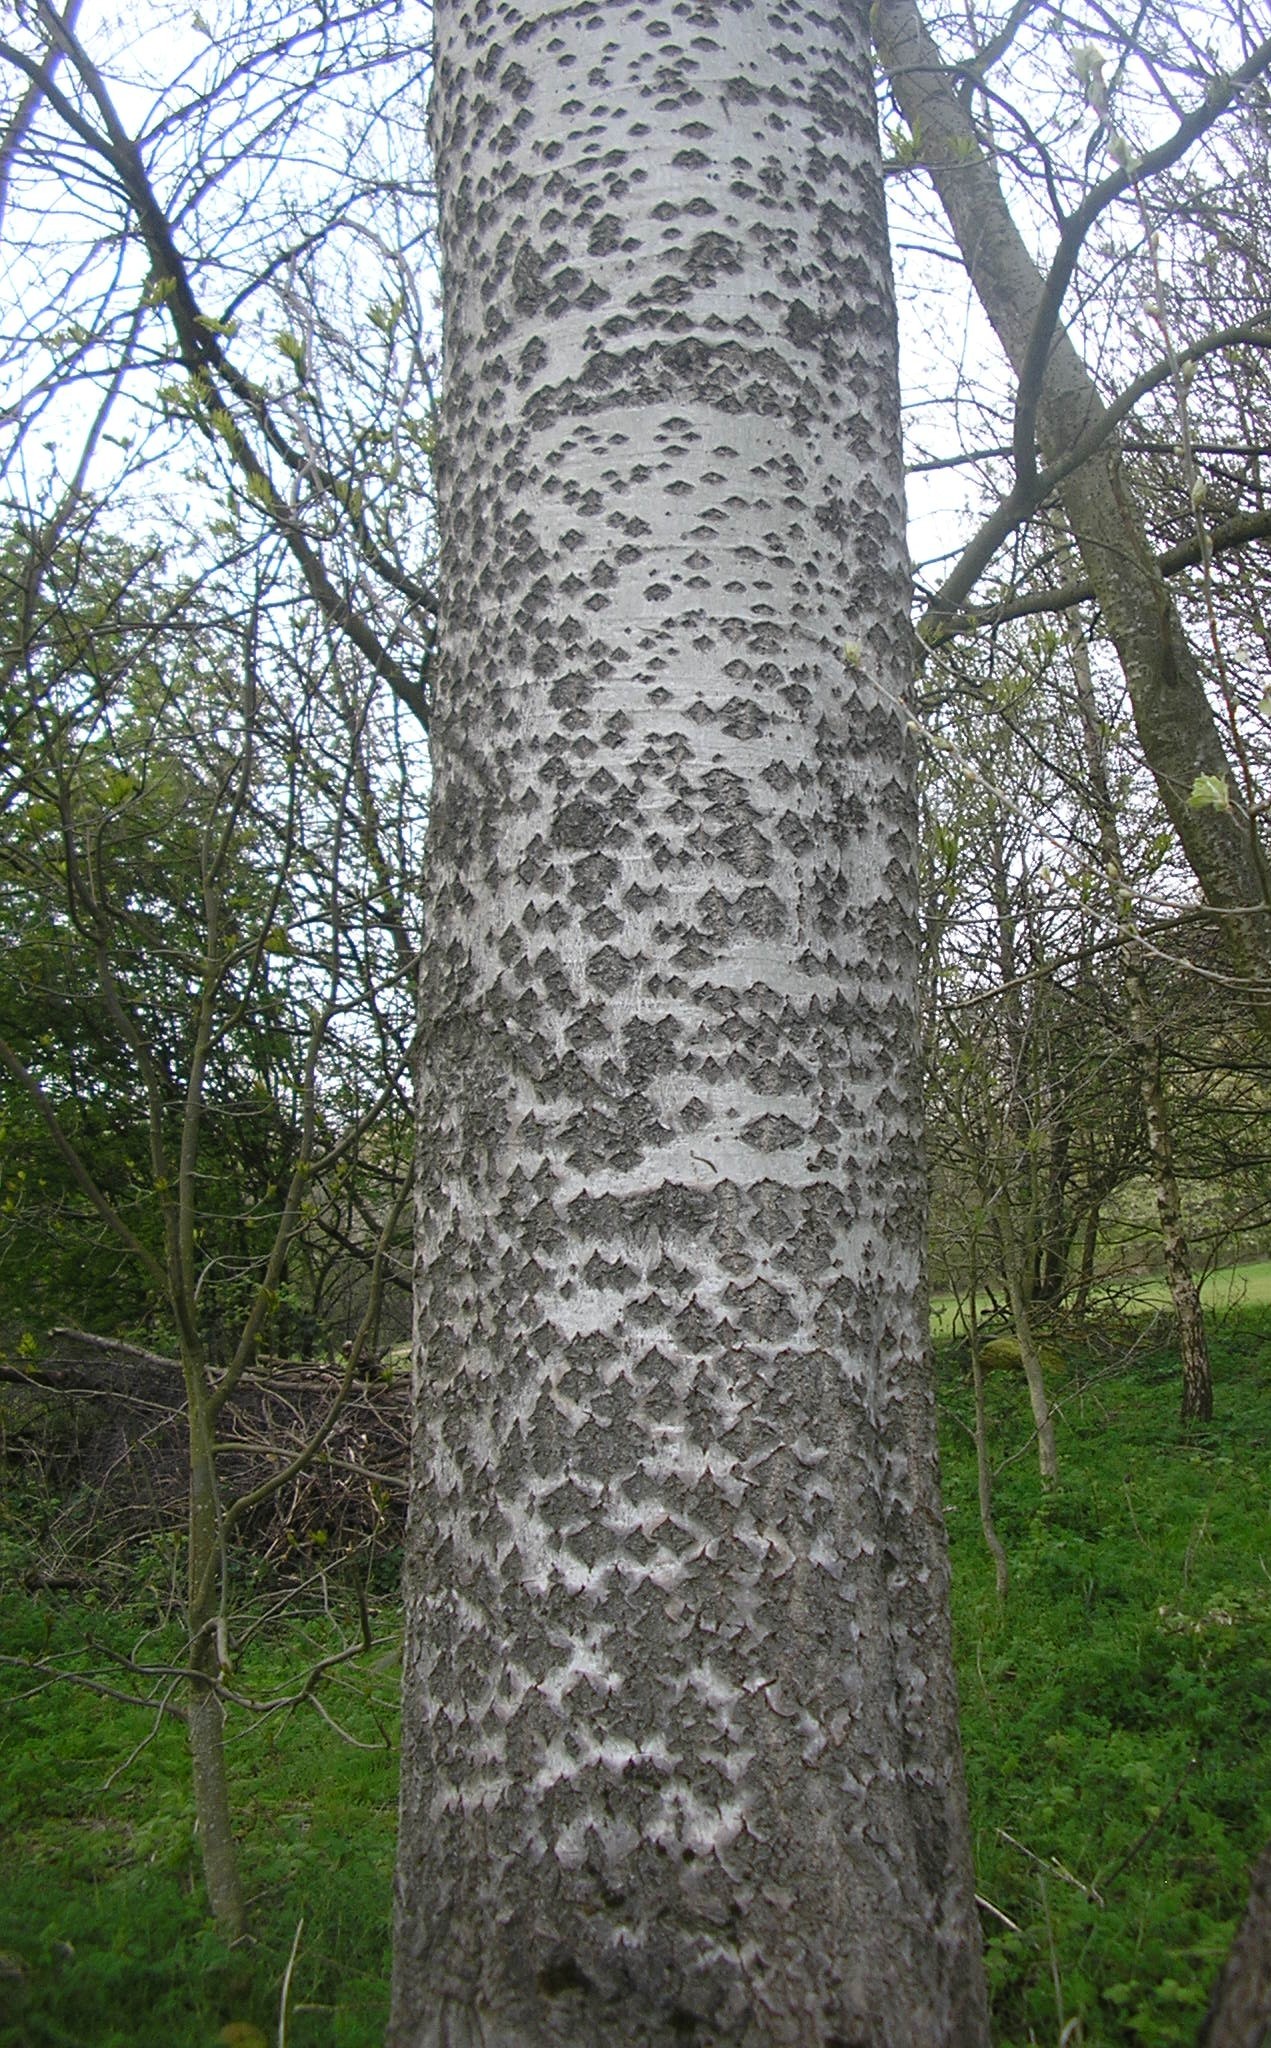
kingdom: Plantae
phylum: Tracheophyta
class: Magnoliopsida
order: Malpighiales
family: Salicaceae
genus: Populus
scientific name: Populus alba
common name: White poplar
